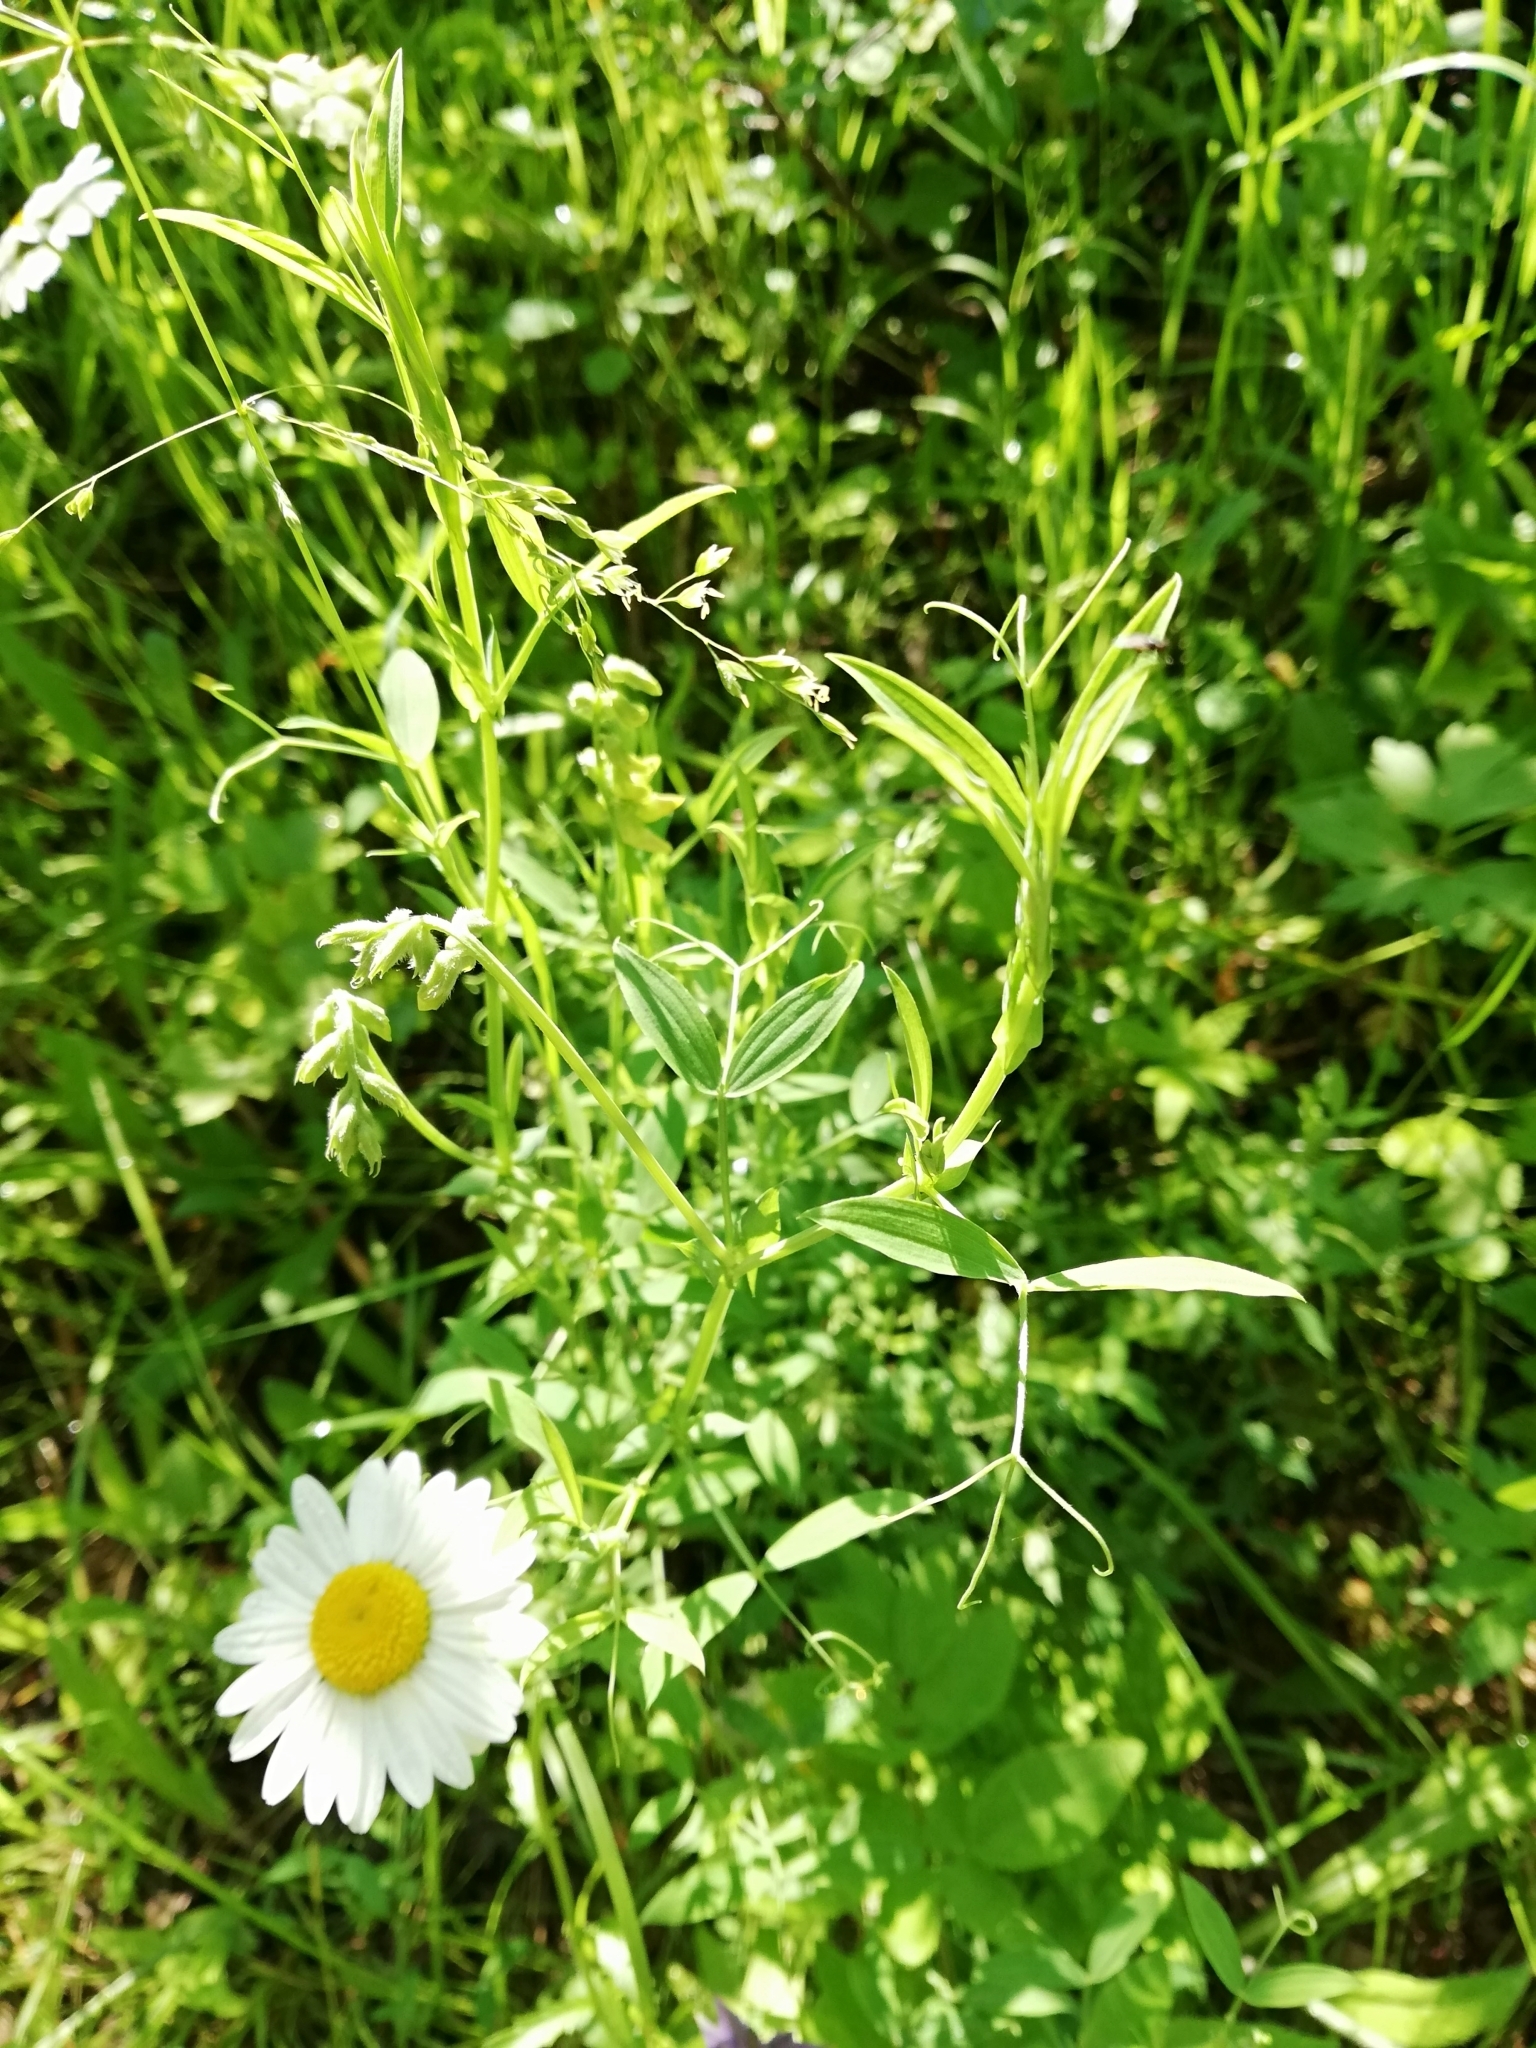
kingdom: Plantae
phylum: Tracheophyta
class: Magnoliopsida
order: Fabales
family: Fabaceae
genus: Lathyrus
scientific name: Lathyrus pratensis
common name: Meadow vetchling
